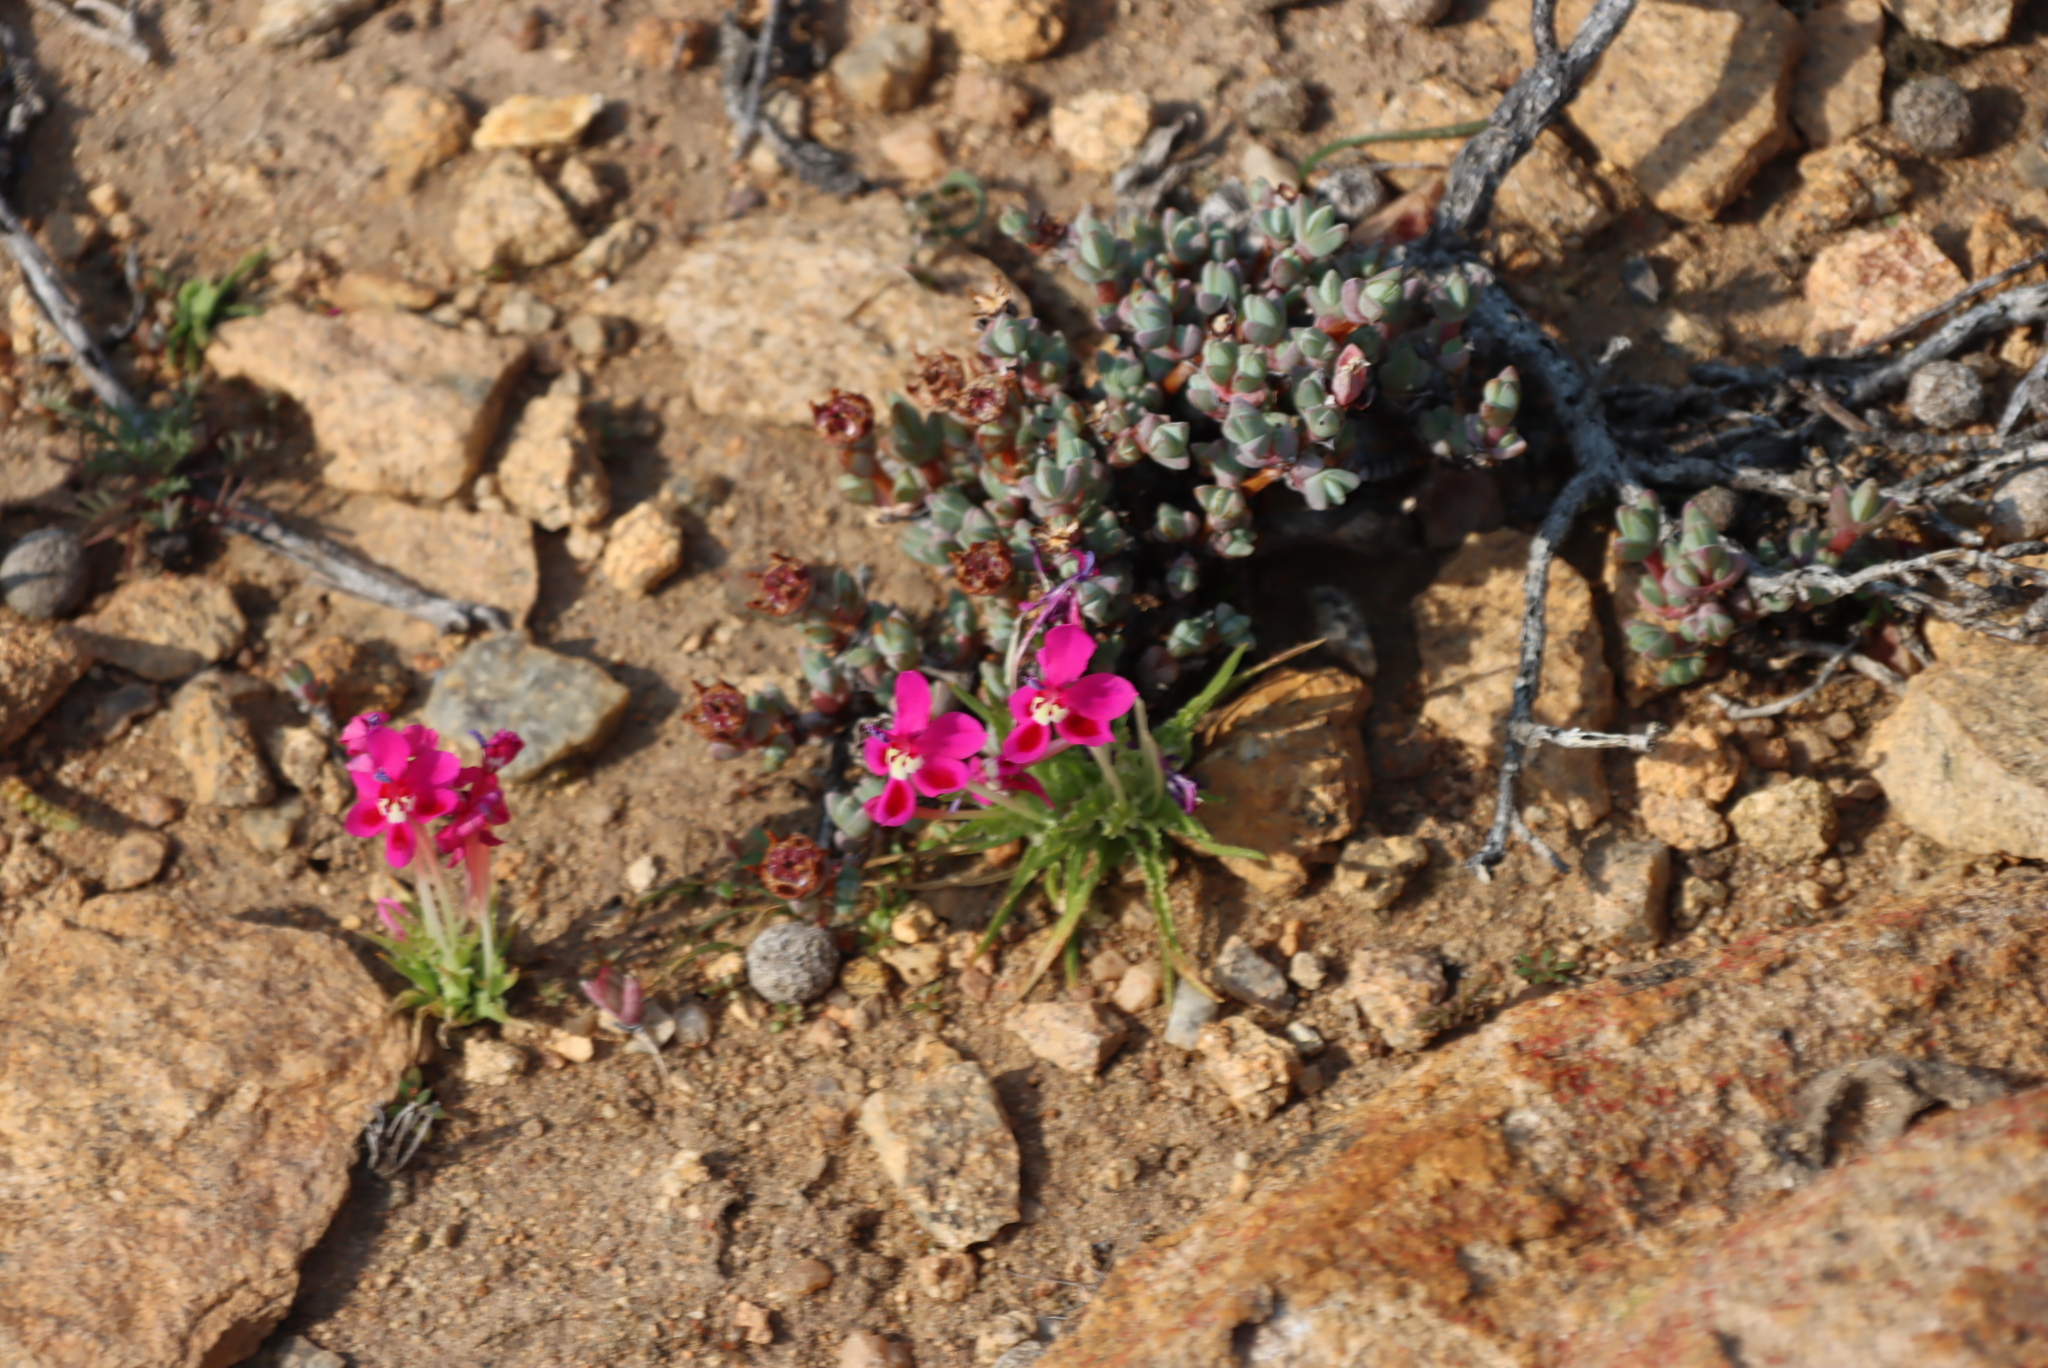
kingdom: Plantae
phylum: Tracheophyta
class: Liliopsida
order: Asparagales
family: Iridaceae
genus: Lapeirousia
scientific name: Lapeirousia silenoides
